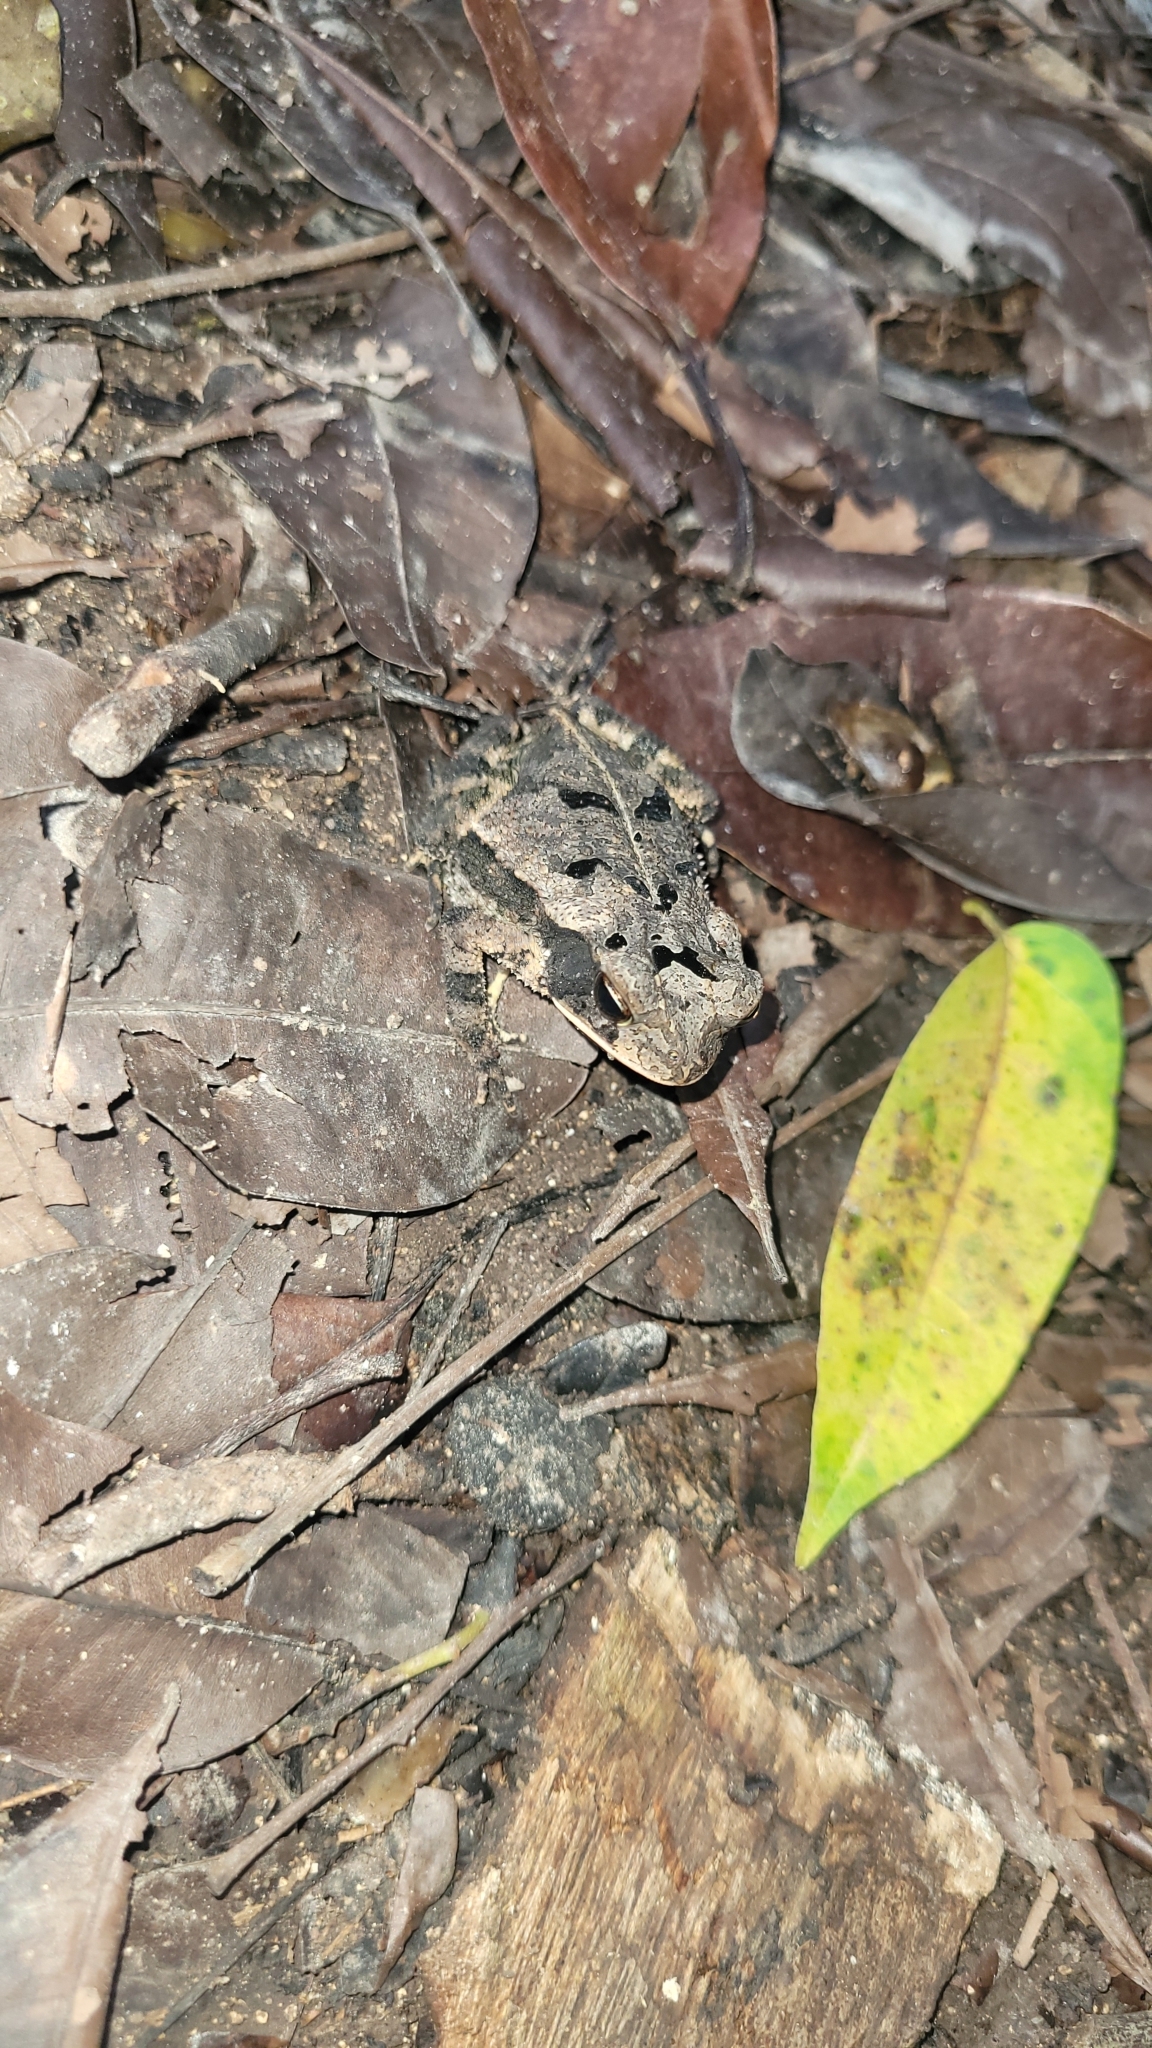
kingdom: Animalia
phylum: Chordata
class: Amphibia
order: Anura
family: Bufonidae
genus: Incilius
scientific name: Incilius valliceps
